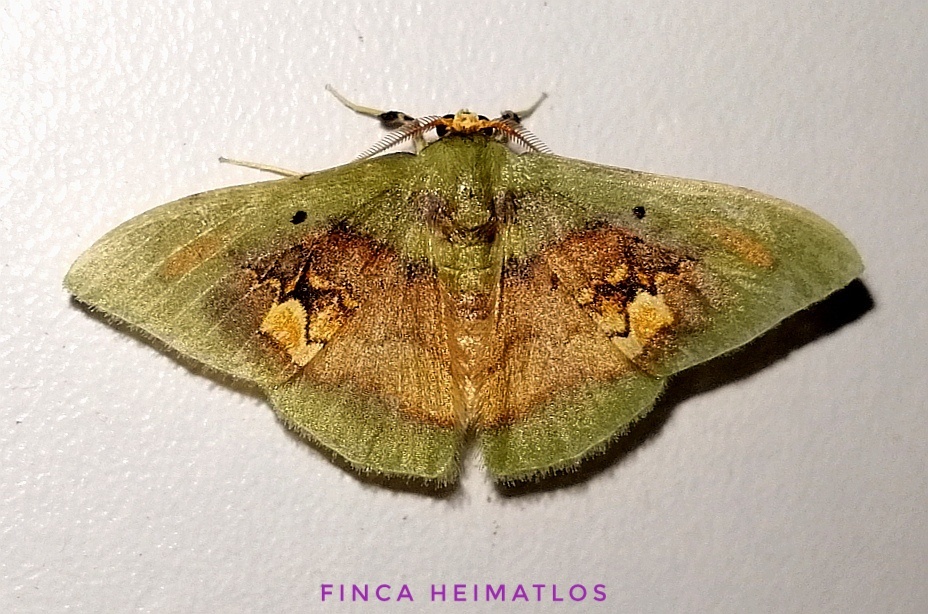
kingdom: Animalia
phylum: Arthropoda
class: Insecta
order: Lepidoptera
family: Geometridae
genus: Pyrochlora
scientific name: Pyrochlora rhanis
